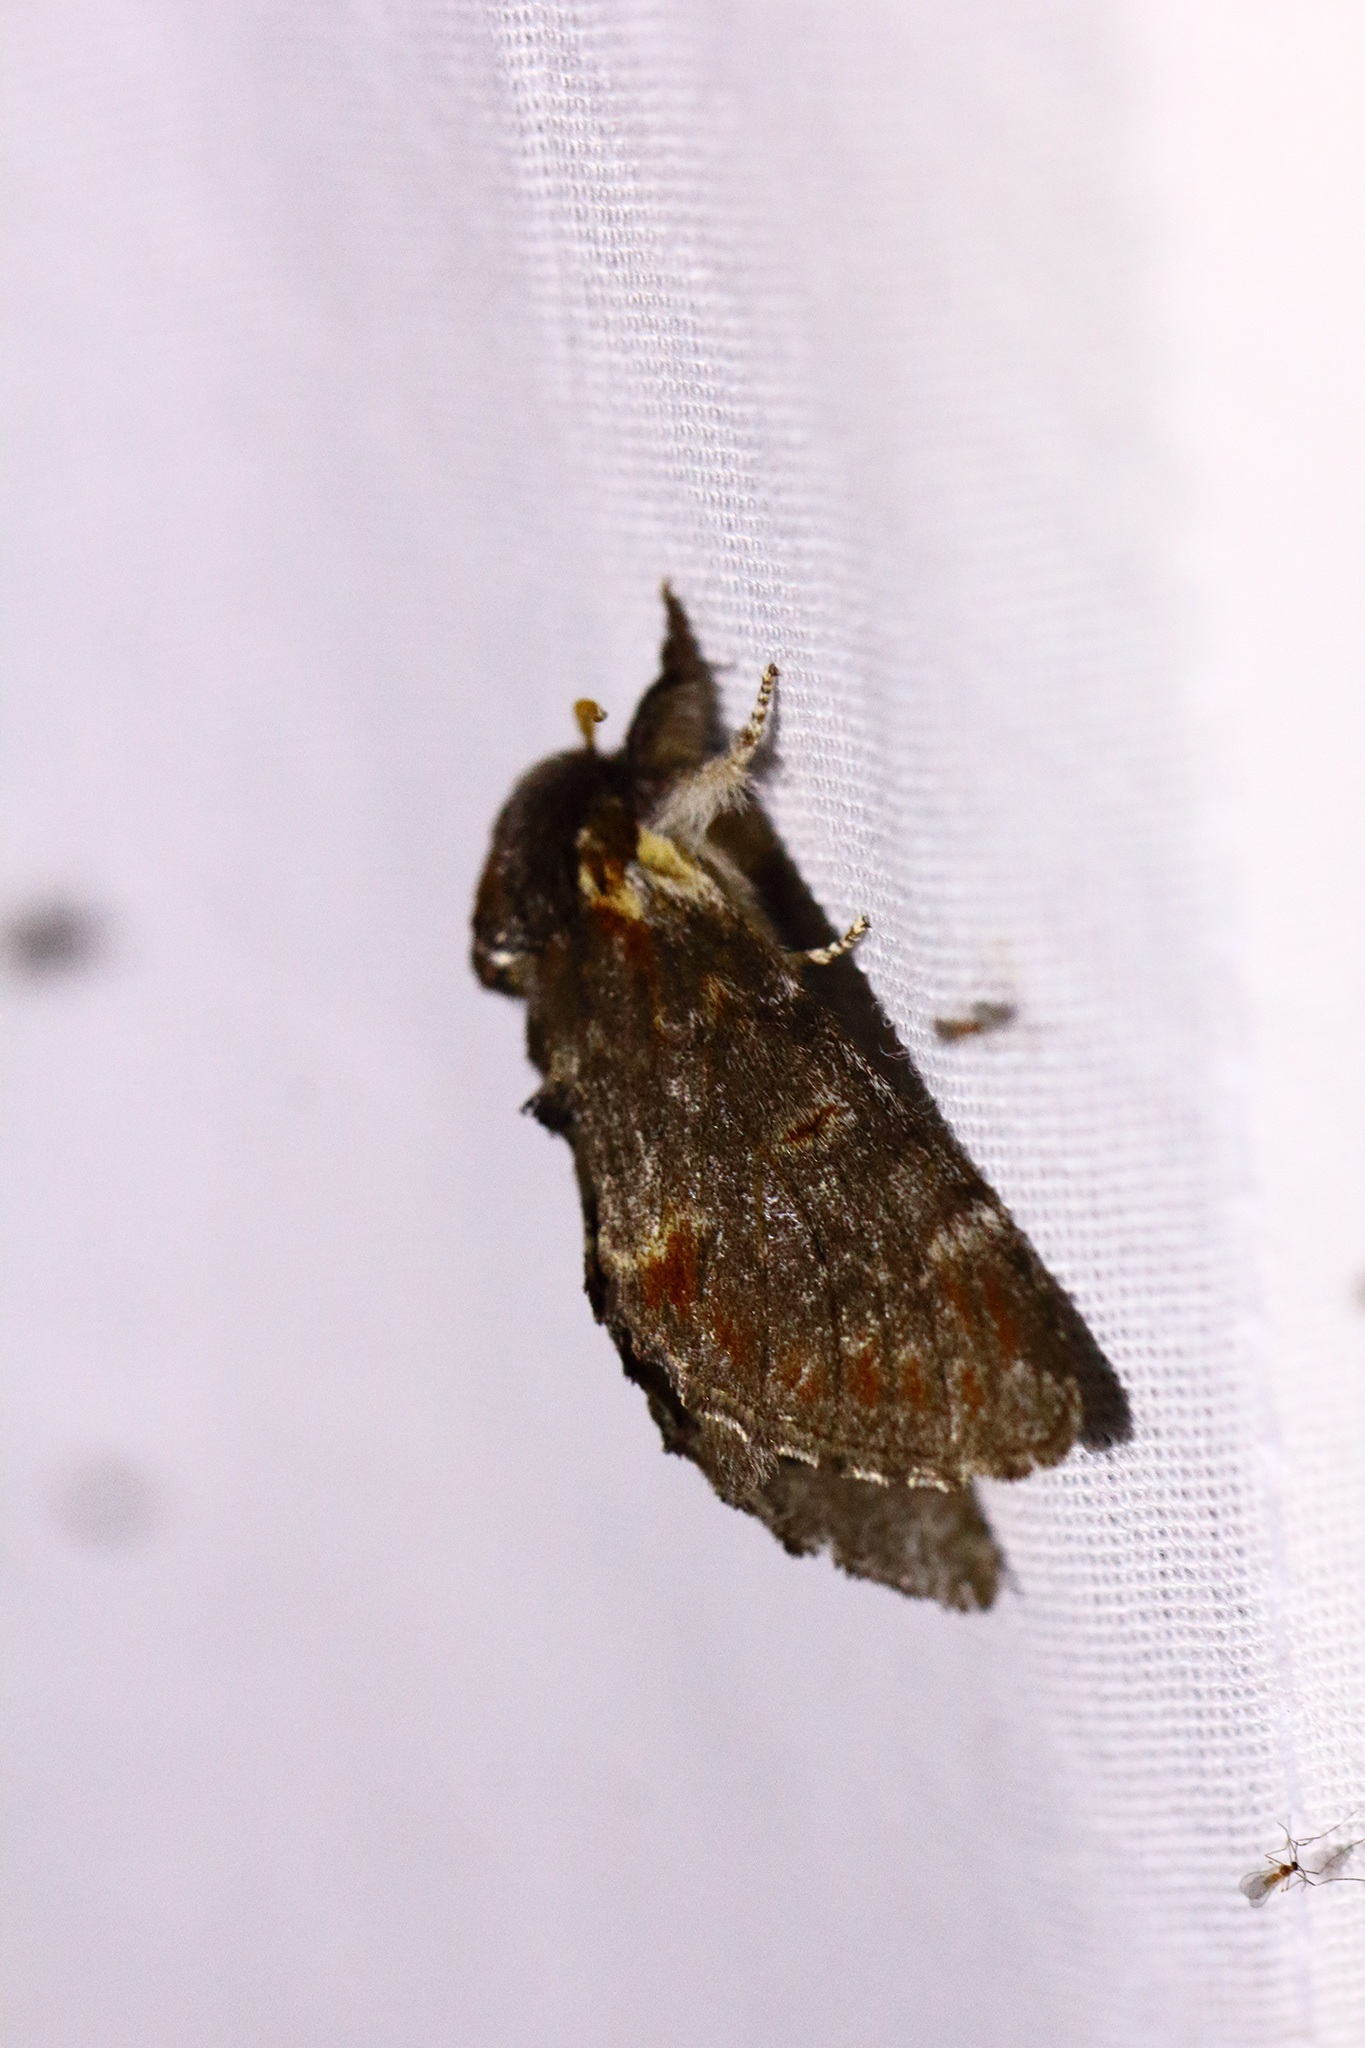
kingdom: Animalia
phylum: Arthropoda
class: Insecta
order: Lepidoptera
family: Notodontidae
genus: Notodonta
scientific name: Notodonta dromedarius
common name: Iron prominent
